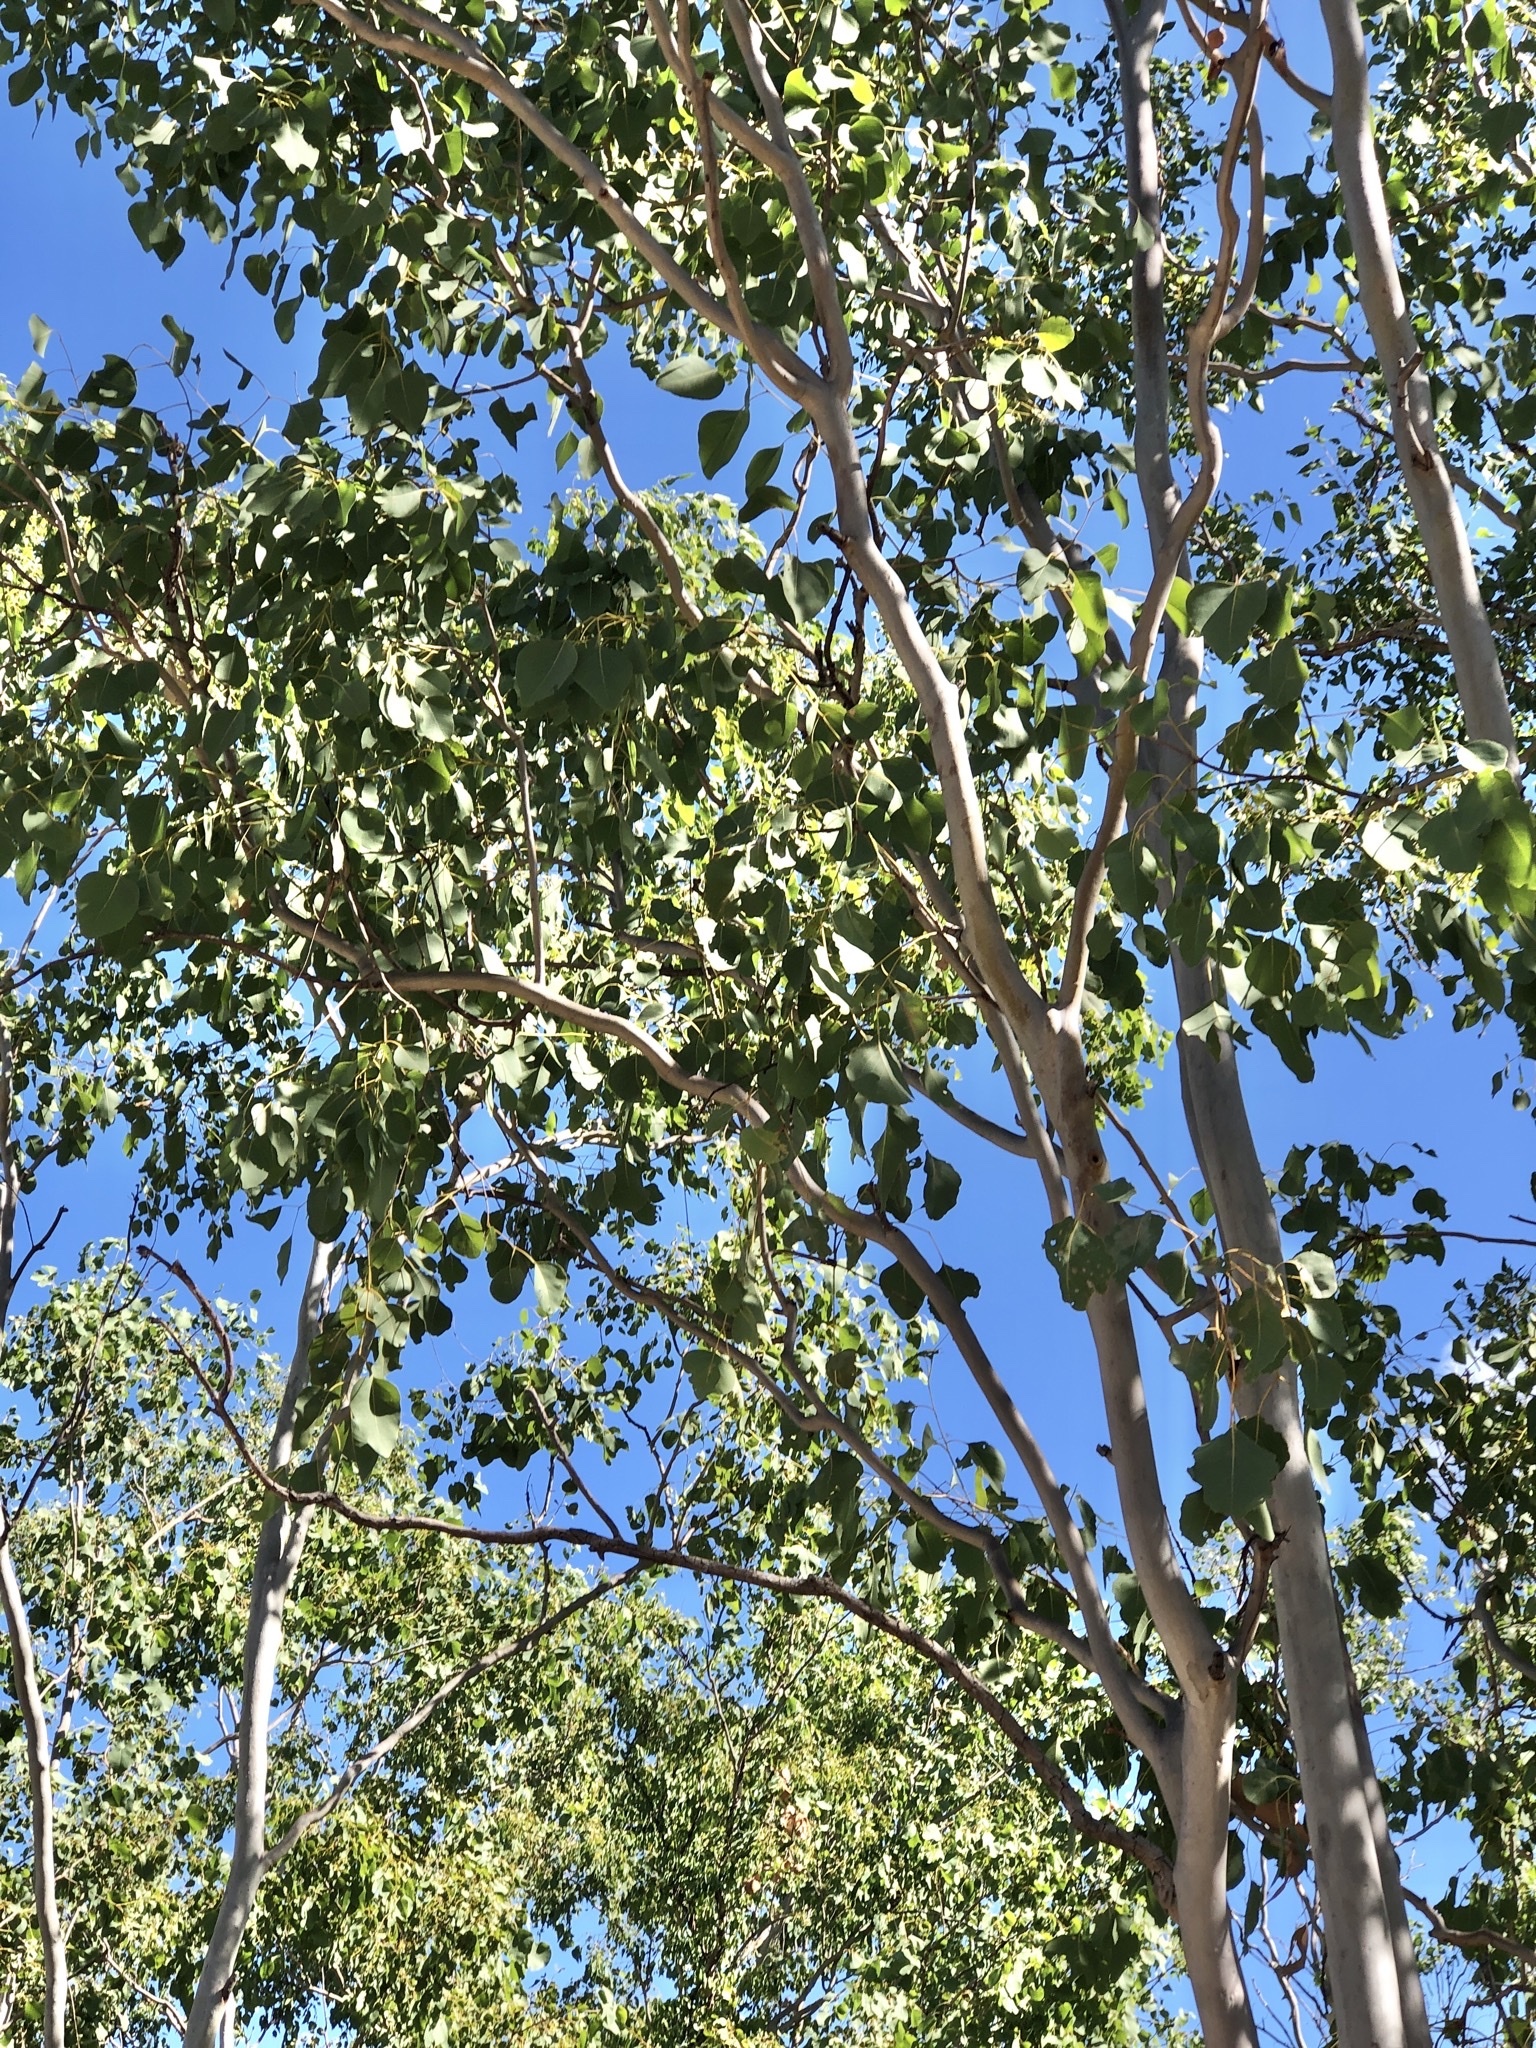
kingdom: Plantae
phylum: Tracheophyta
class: Magnoliopsida
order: Myrtales
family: Myrtaceae
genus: Eucalyptus
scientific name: Eucalyptus platyphylla
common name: Poplar-gum
